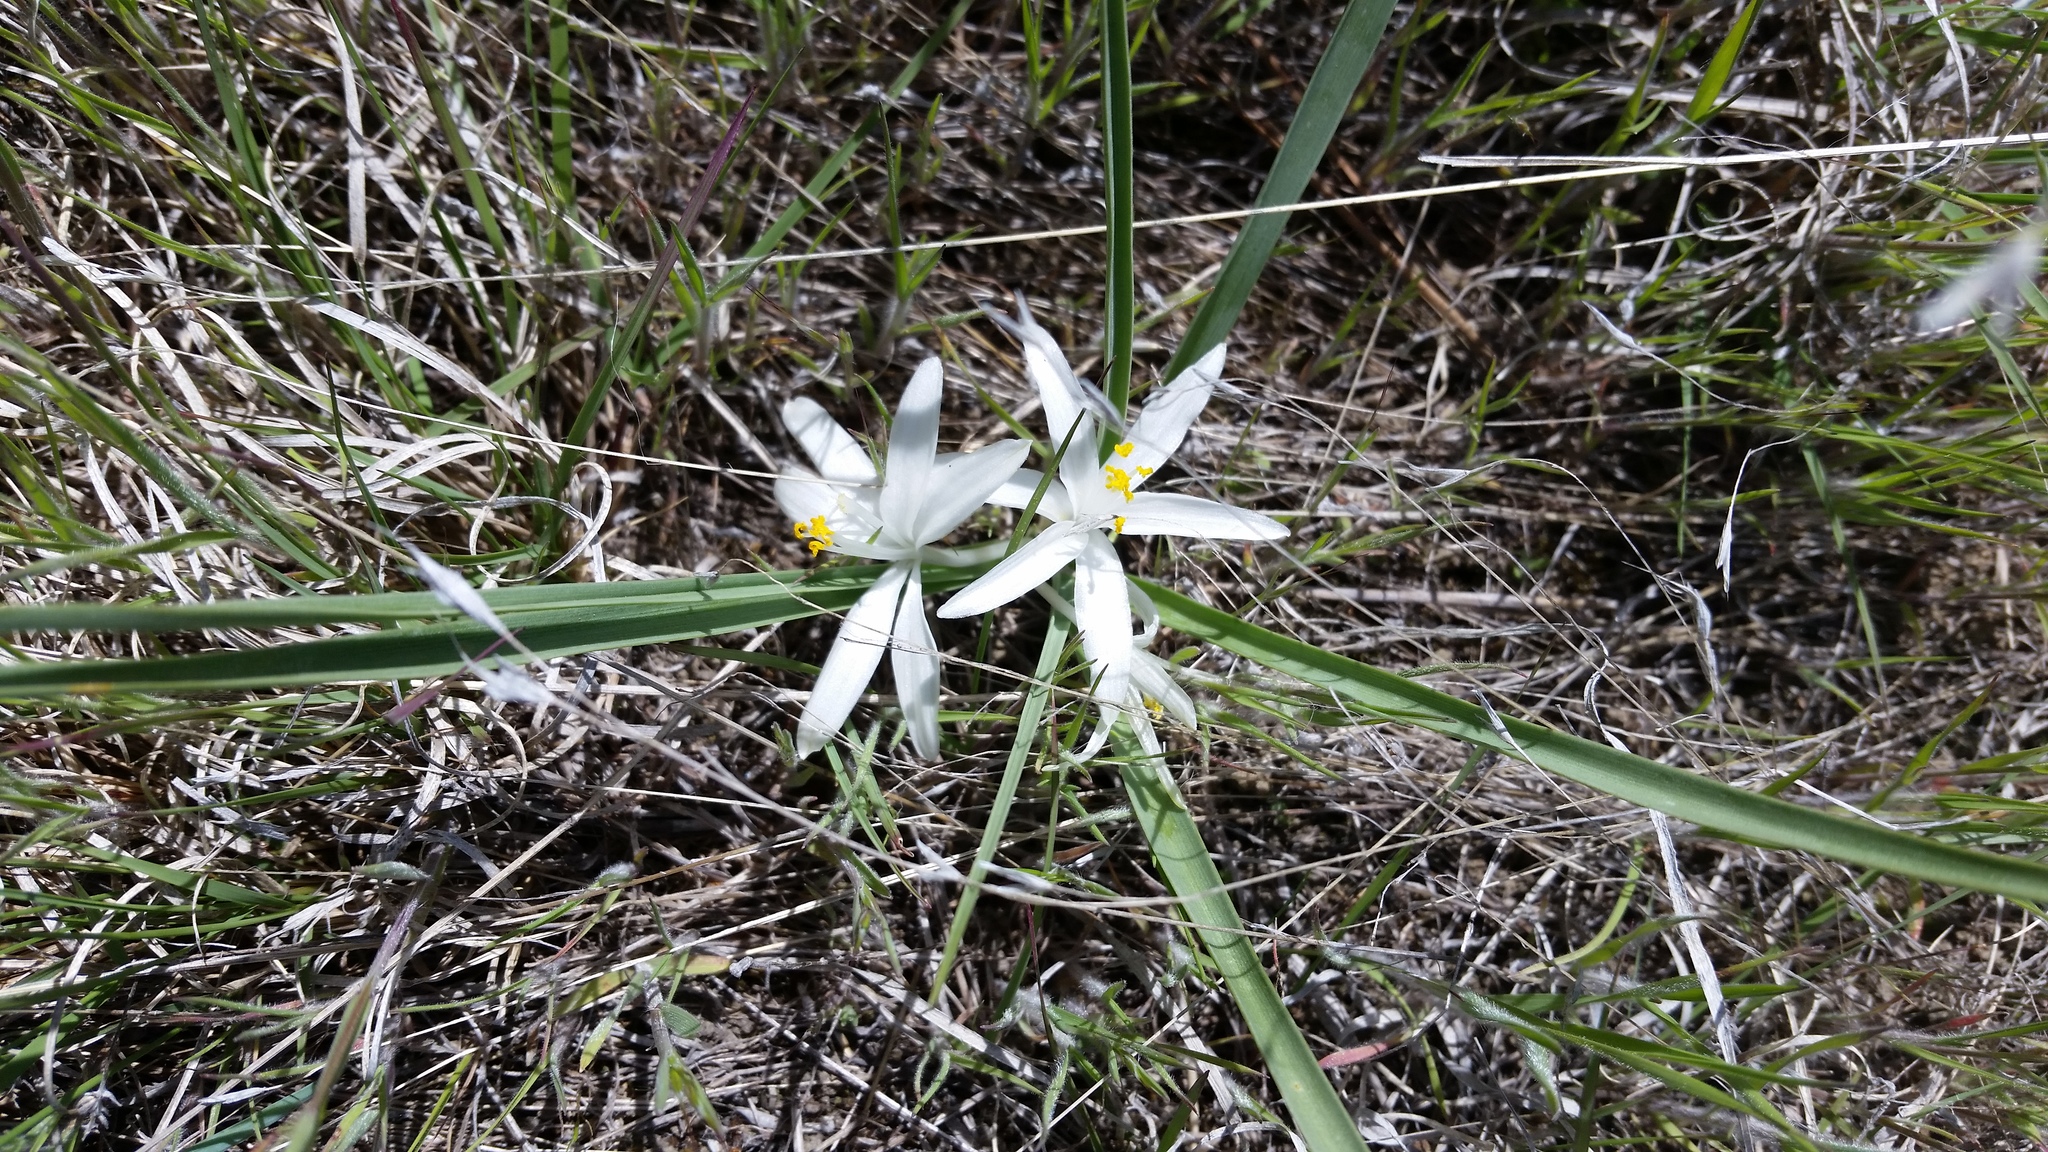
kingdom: Plantae
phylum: Tracheophyta
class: Liliopsida
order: Asparagales
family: Asparagaceae
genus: Leucocrinum
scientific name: Leucocrinum montanum
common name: Mountain-lily
